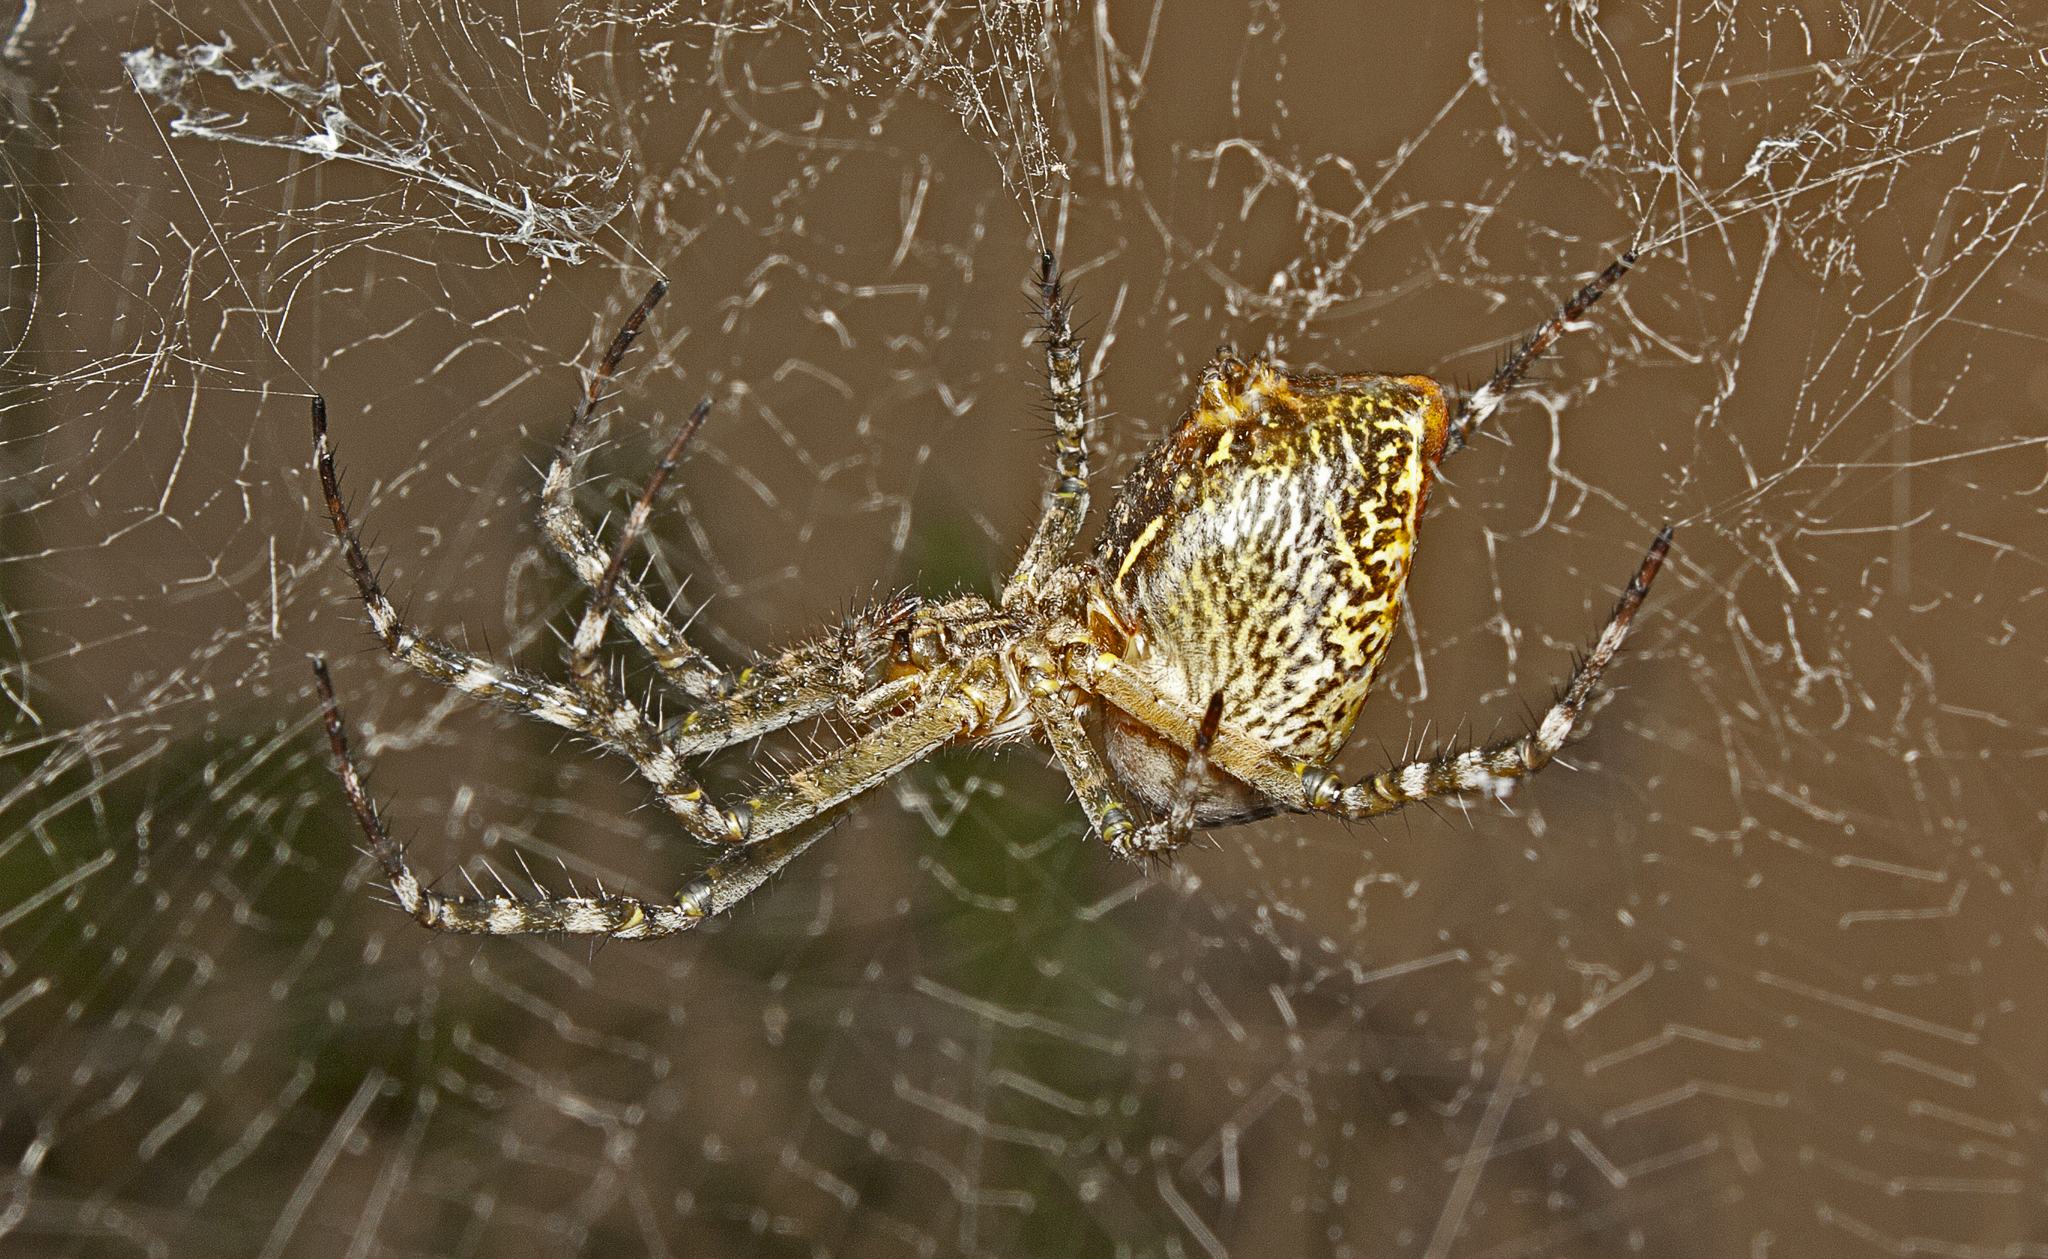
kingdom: Chromista
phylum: Ochrophyta
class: Dictyochophyceae
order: Pedinellales
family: Cyrtophoraceae
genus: Cyrtophora
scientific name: Cyrtophora moluccensis
